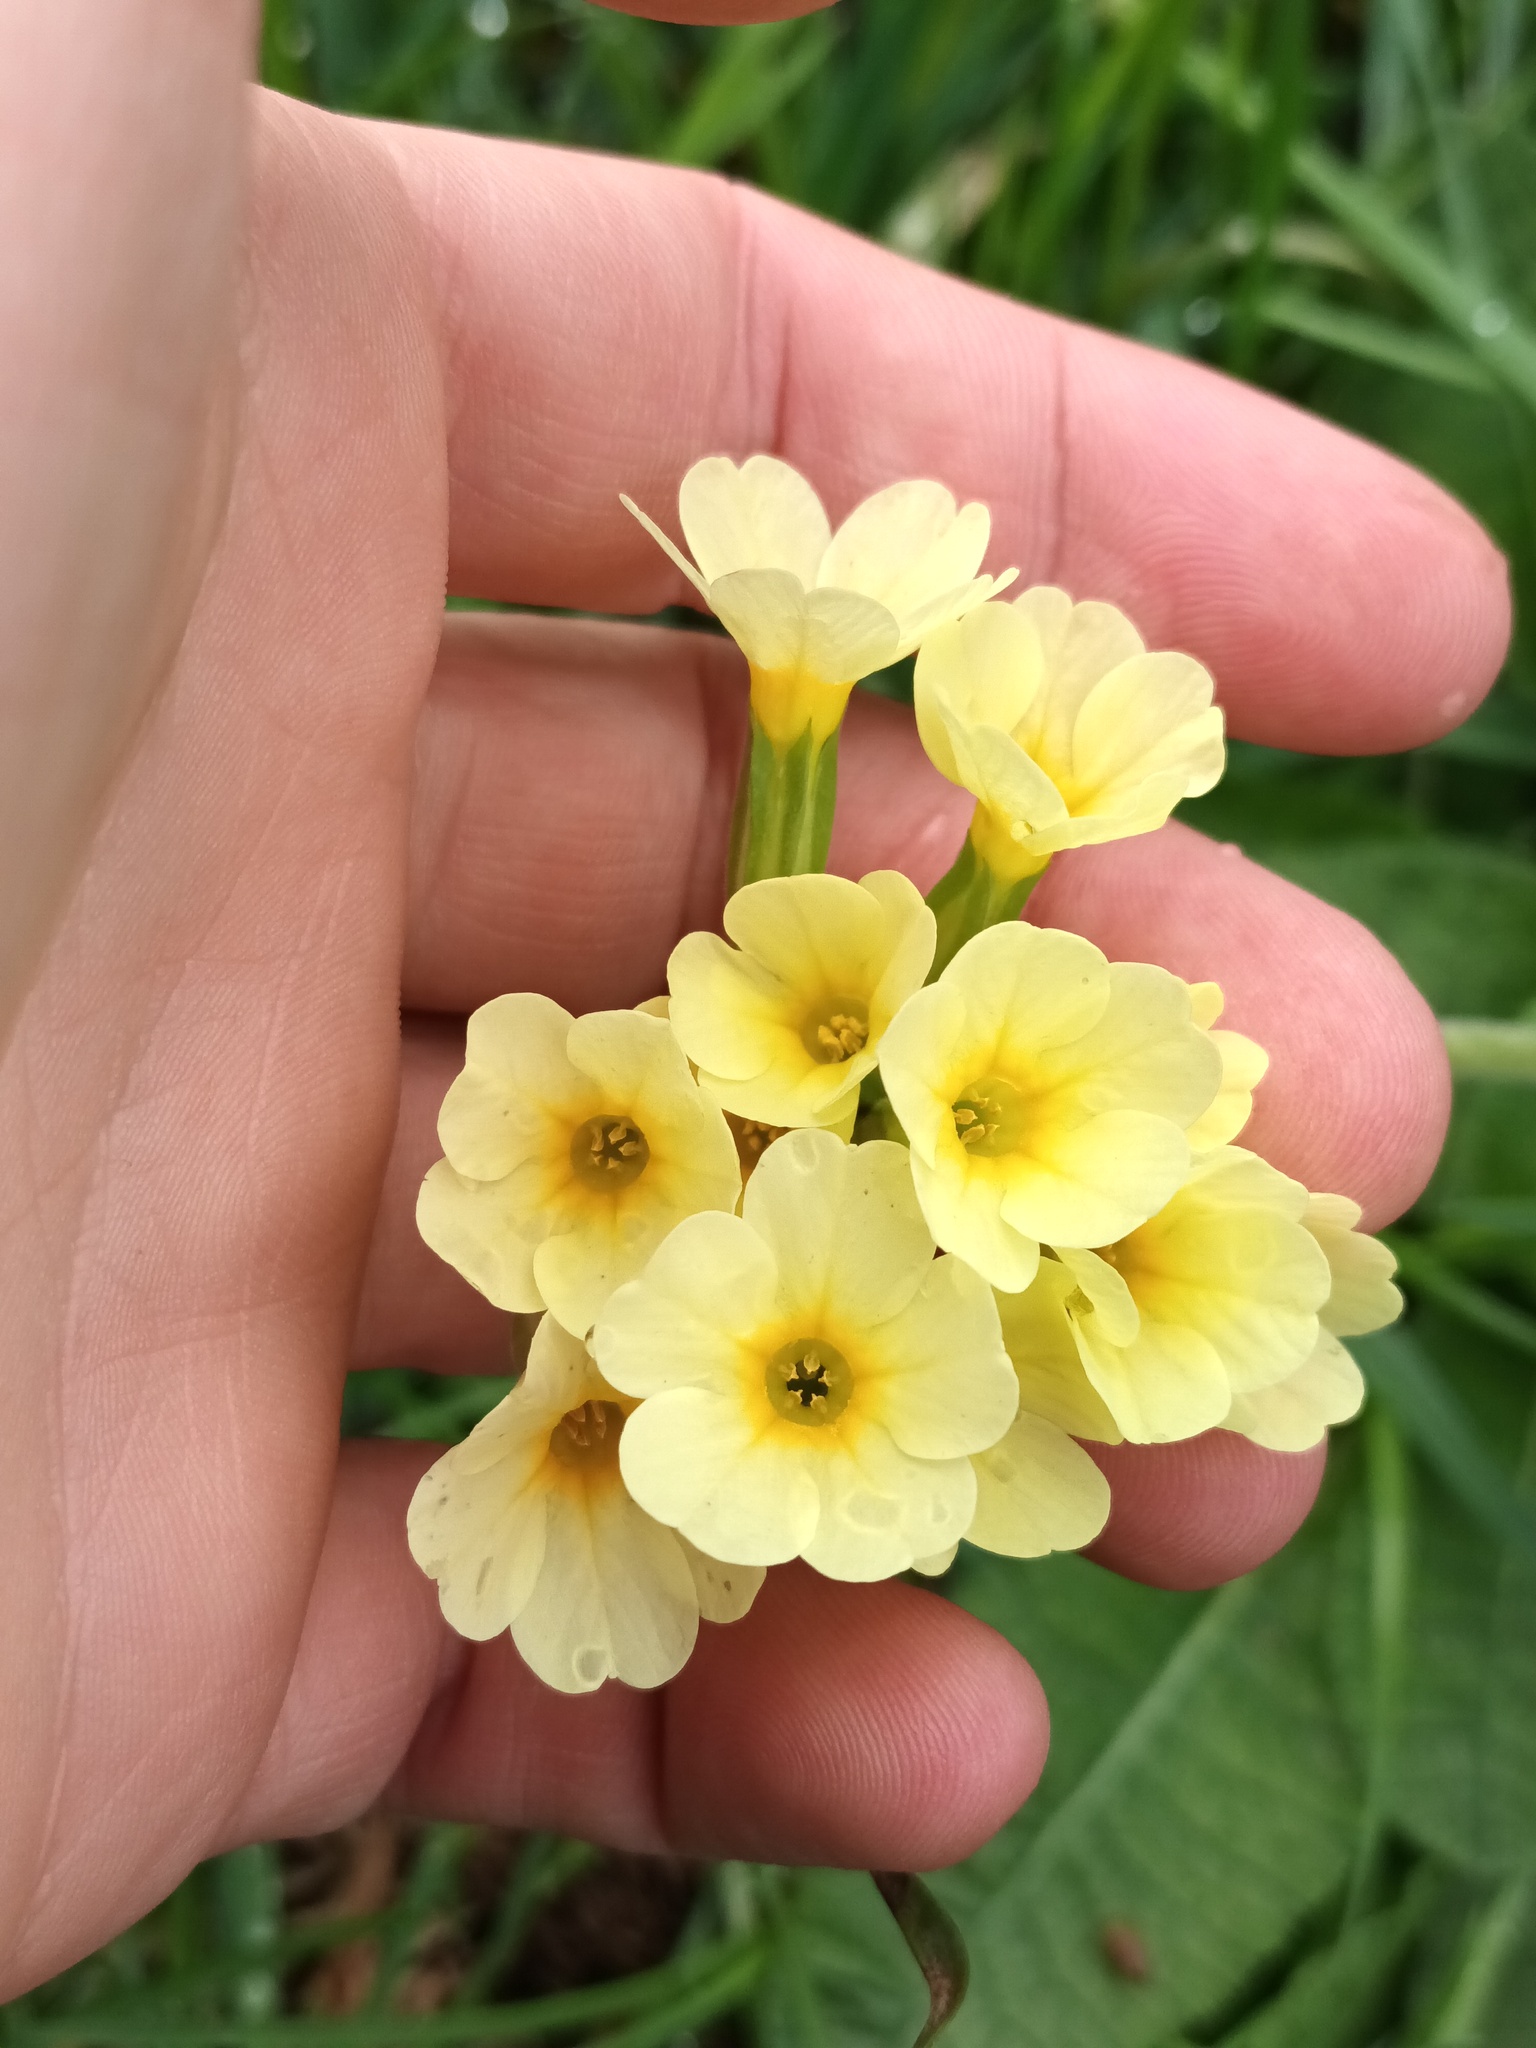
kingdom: Plantae
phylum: Tracheophyta
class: Magnoliopsida
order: Ericales
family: Primulaceae
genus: Primula
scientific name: Primula elatior
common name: Oxlip
